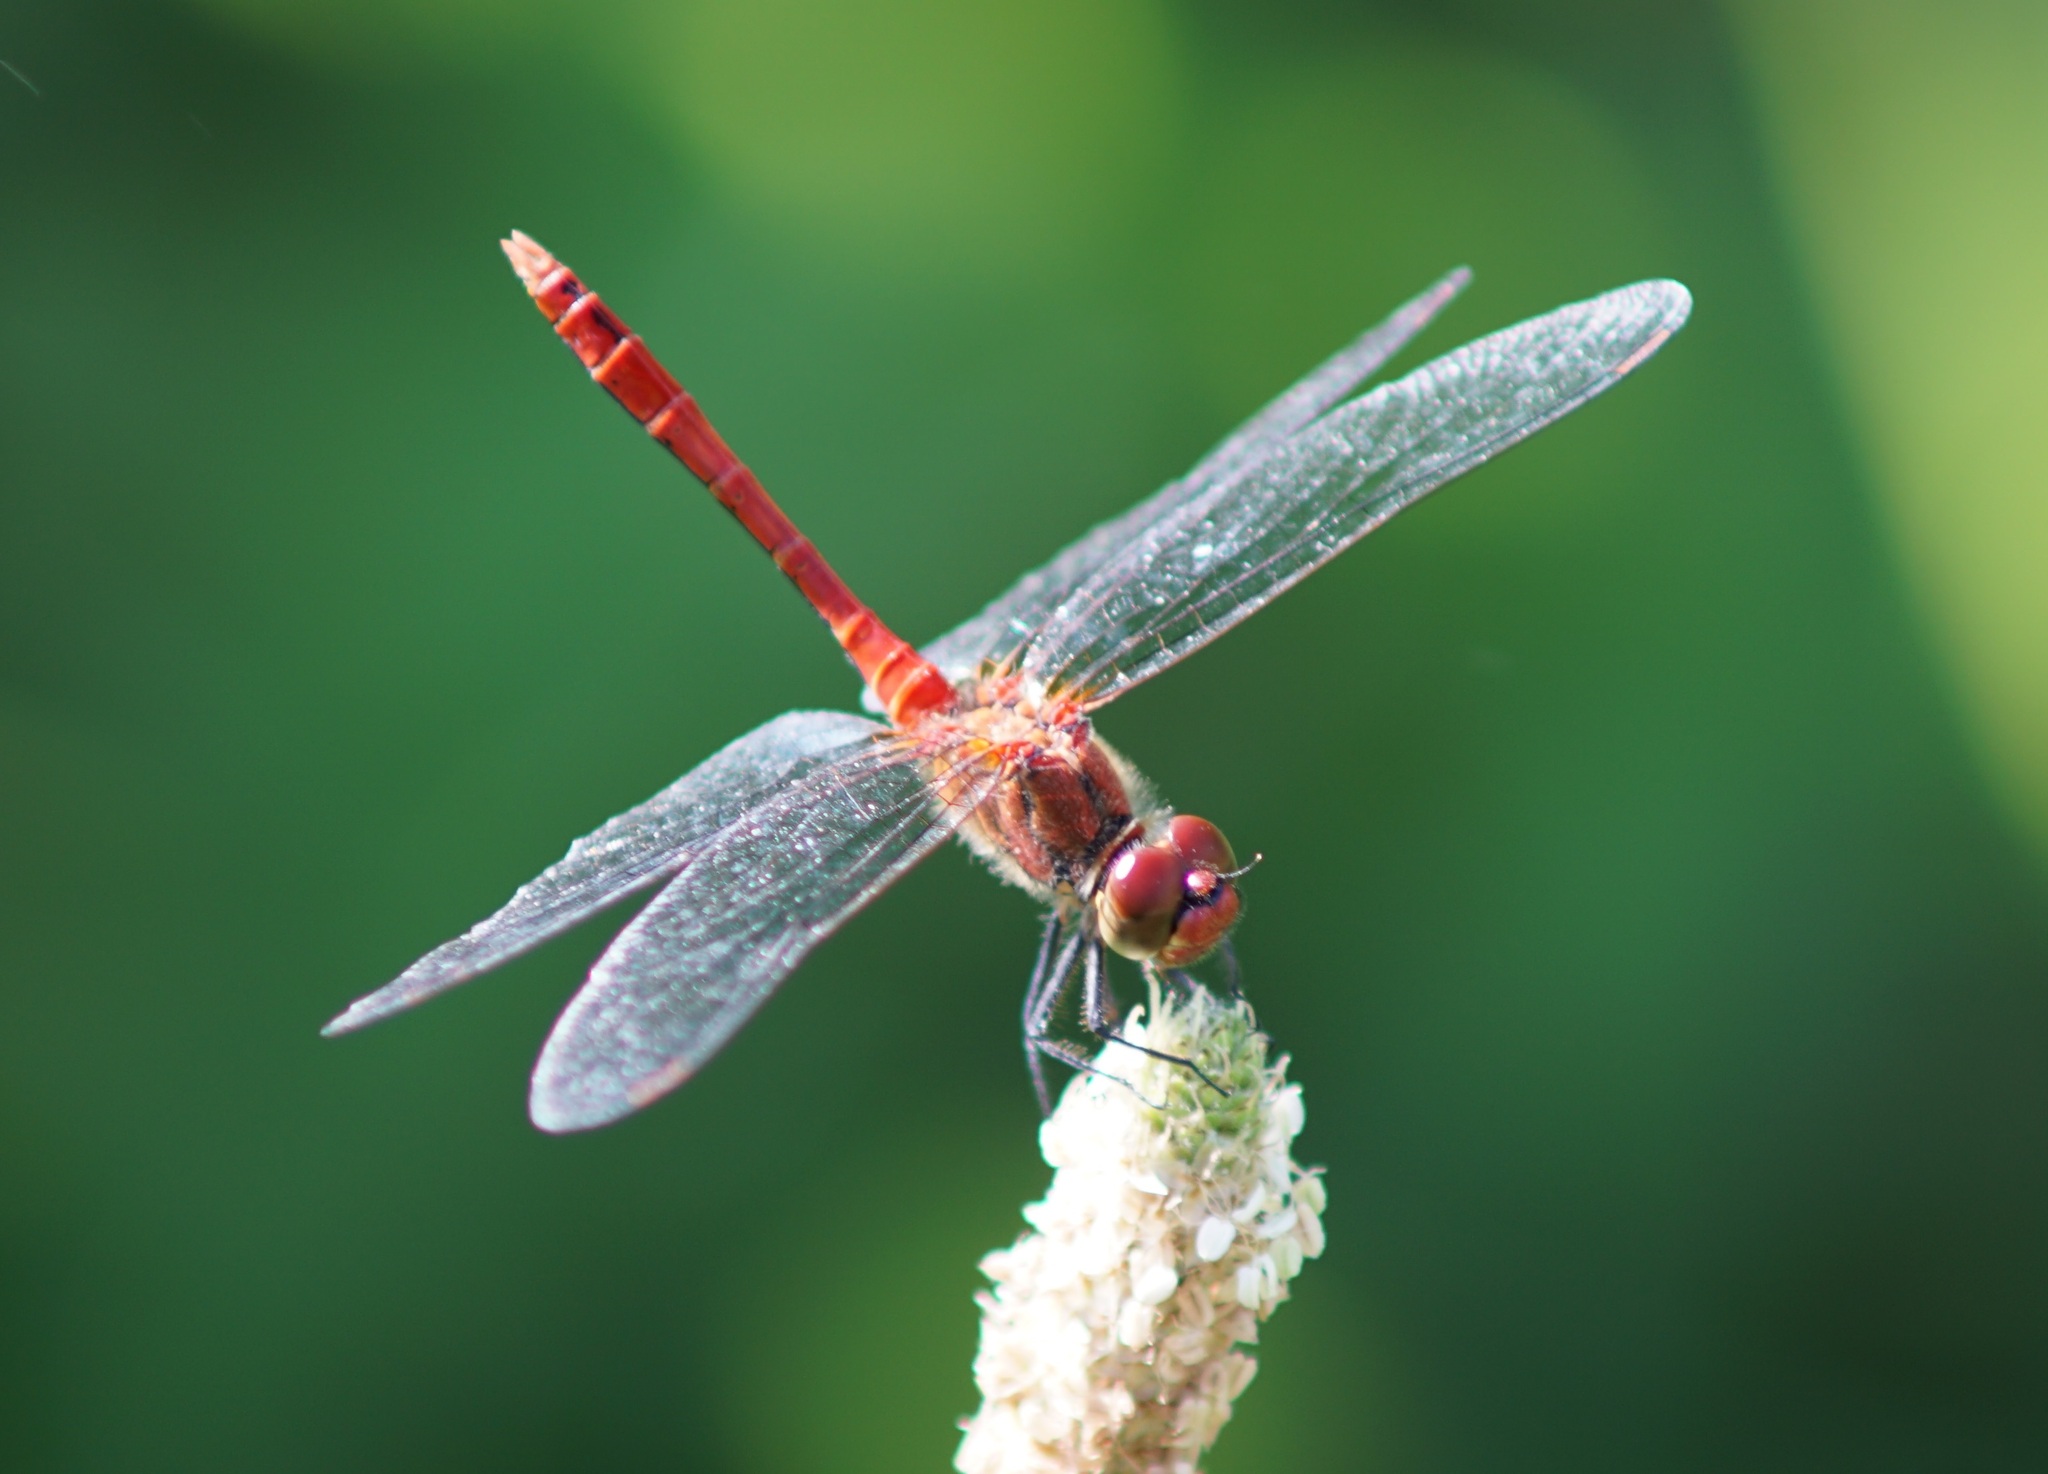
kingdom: Animalia
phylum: Arthropoda
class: Insecta
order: Odonata
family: Libellulidae
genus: Sympetrum
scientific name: Sympetrum sanguineum
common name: Ruddy darter
